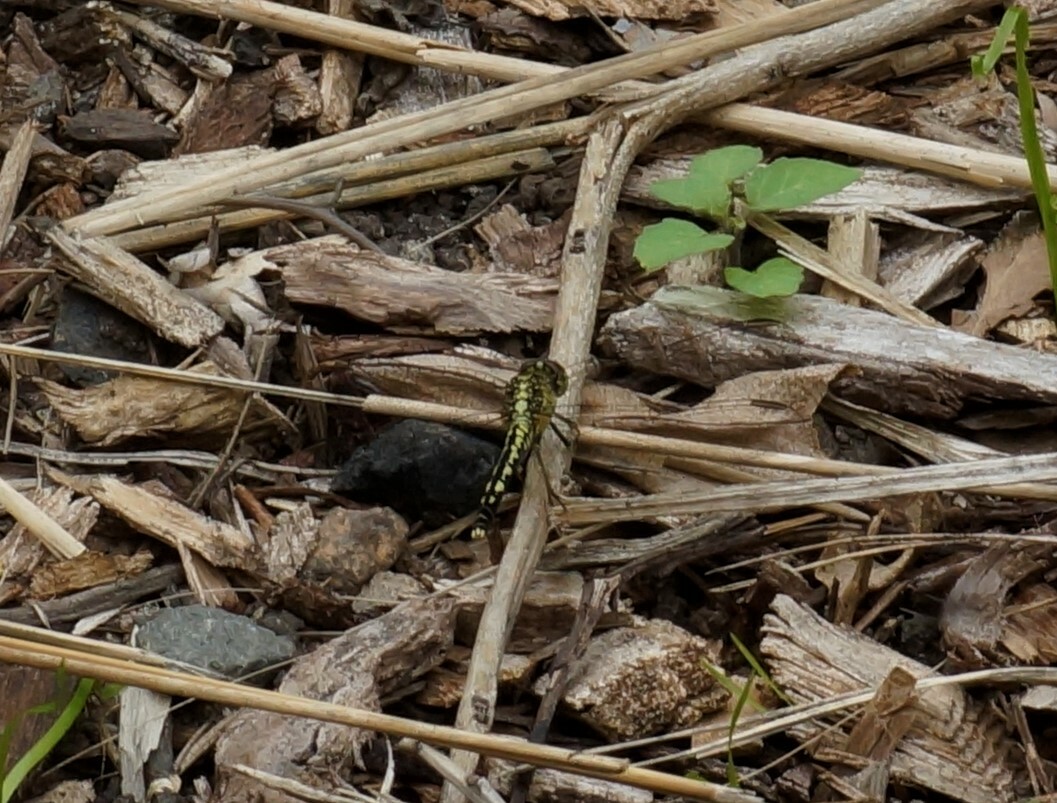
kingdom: Animalia
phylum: Arthropoda
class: Insecta
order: Odonata
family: Libellulidae
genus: Diplacodes
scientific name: Diplacodes trivialis
